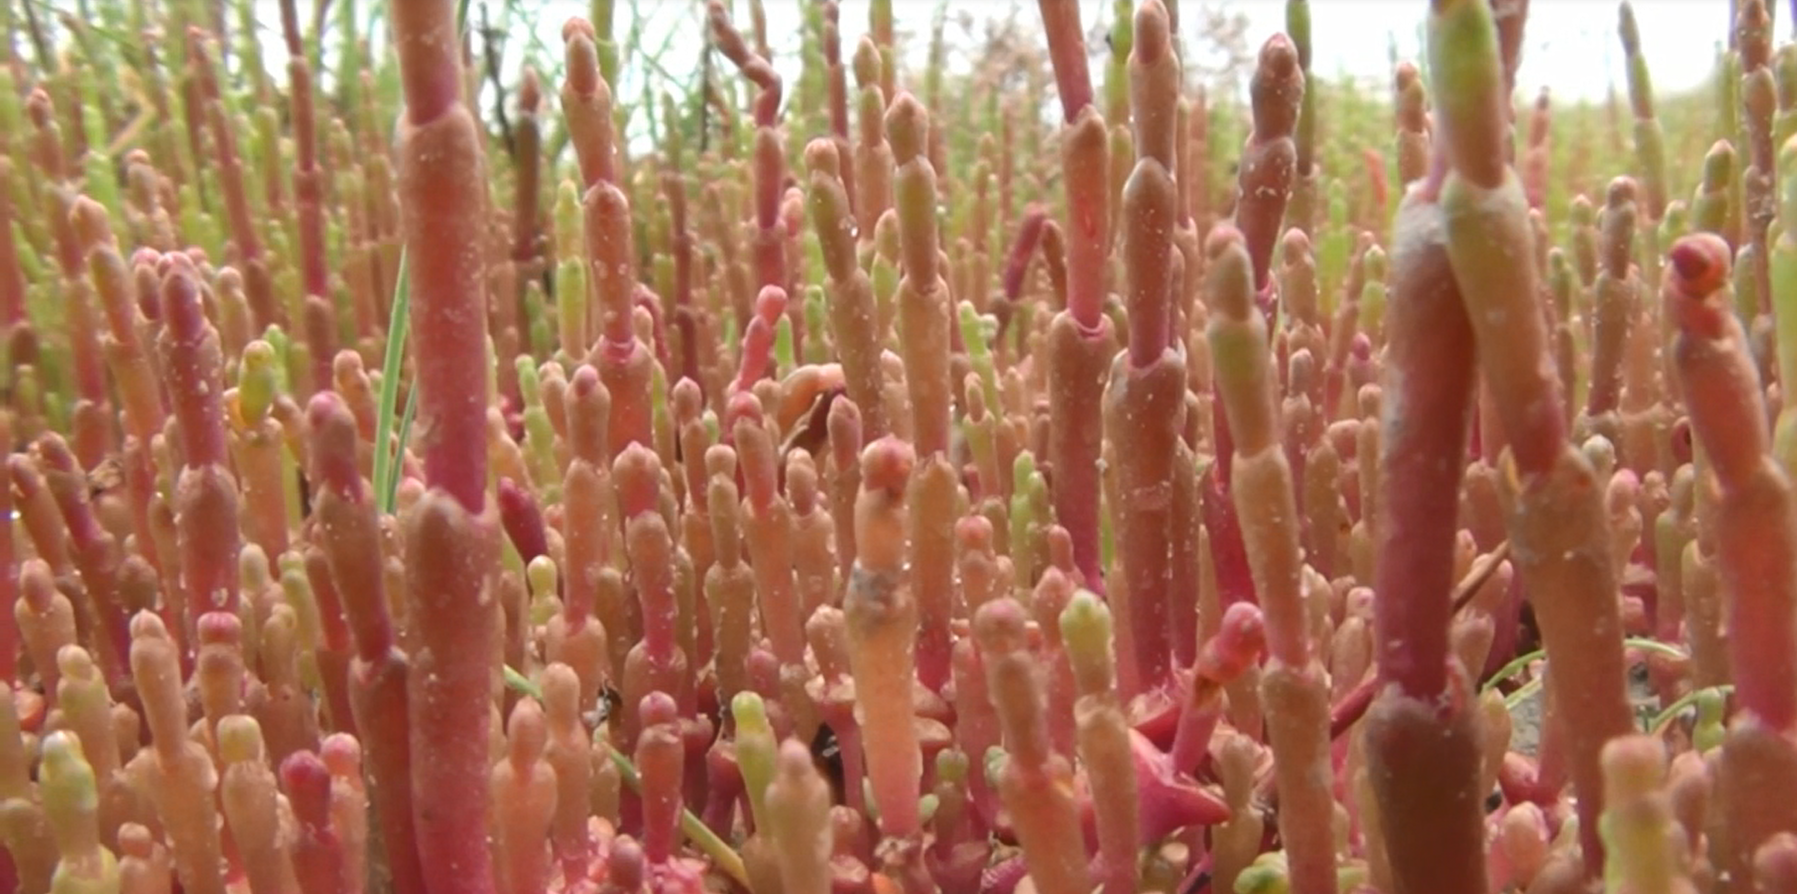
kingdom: Plantae
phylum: Tracheophyta
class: Magnoliopsida
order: Caryophyllales
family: Amaranthaceae
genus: Salicornia
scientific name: Salicornia perennans
